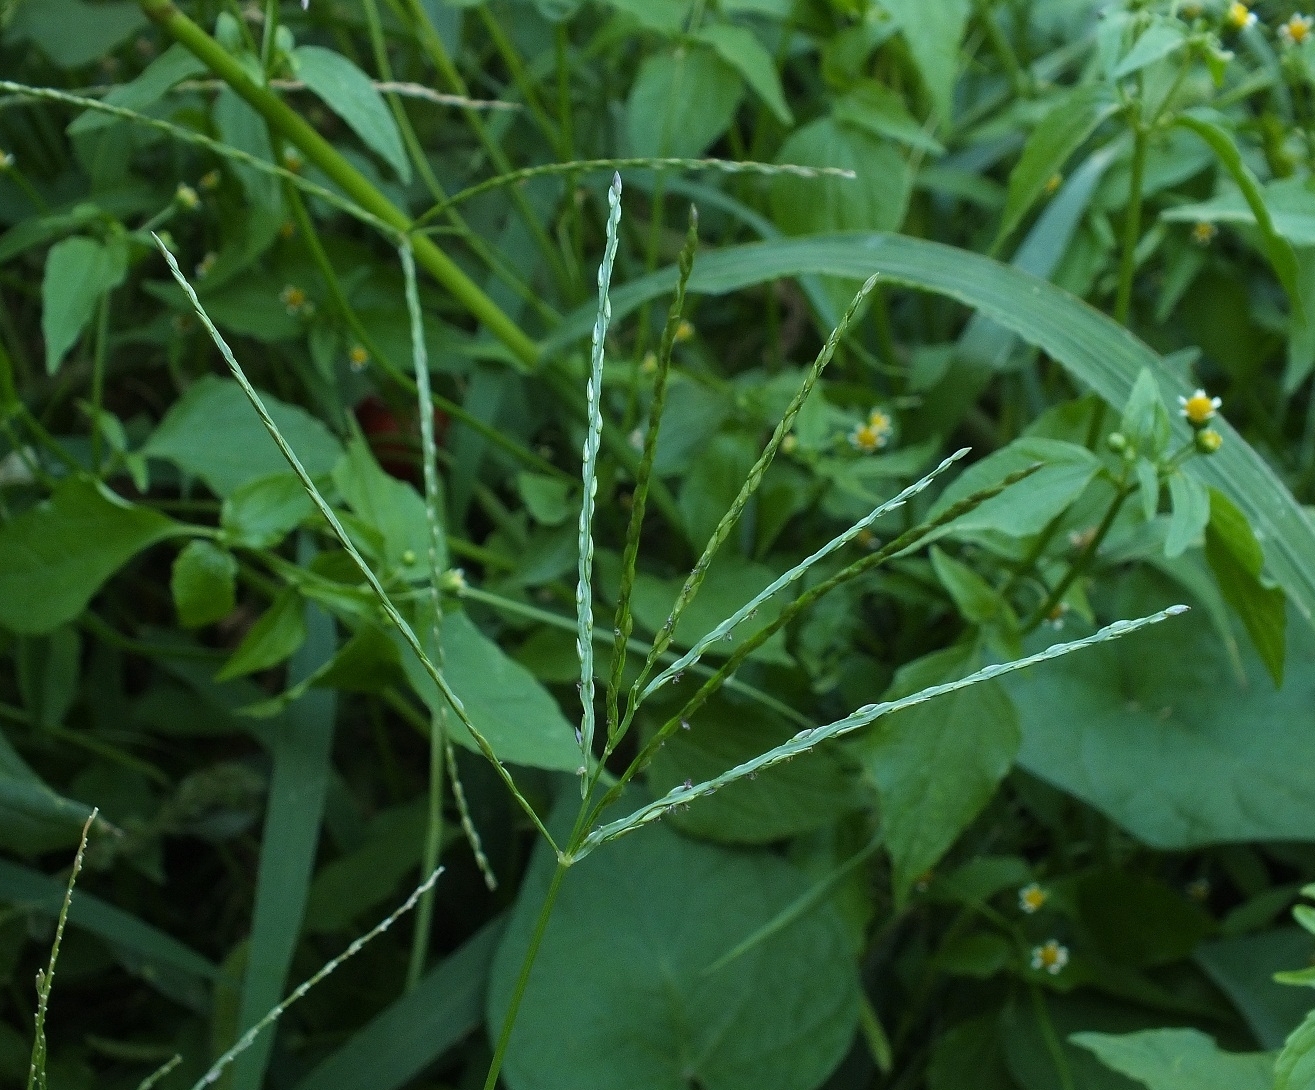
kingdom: Plantae
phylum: Tracheophyta
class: Liliopsida
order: Poales
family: Poaceae
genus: Digitaria
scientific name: Digitaria sanguinalis
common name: Hairy crabgrass
